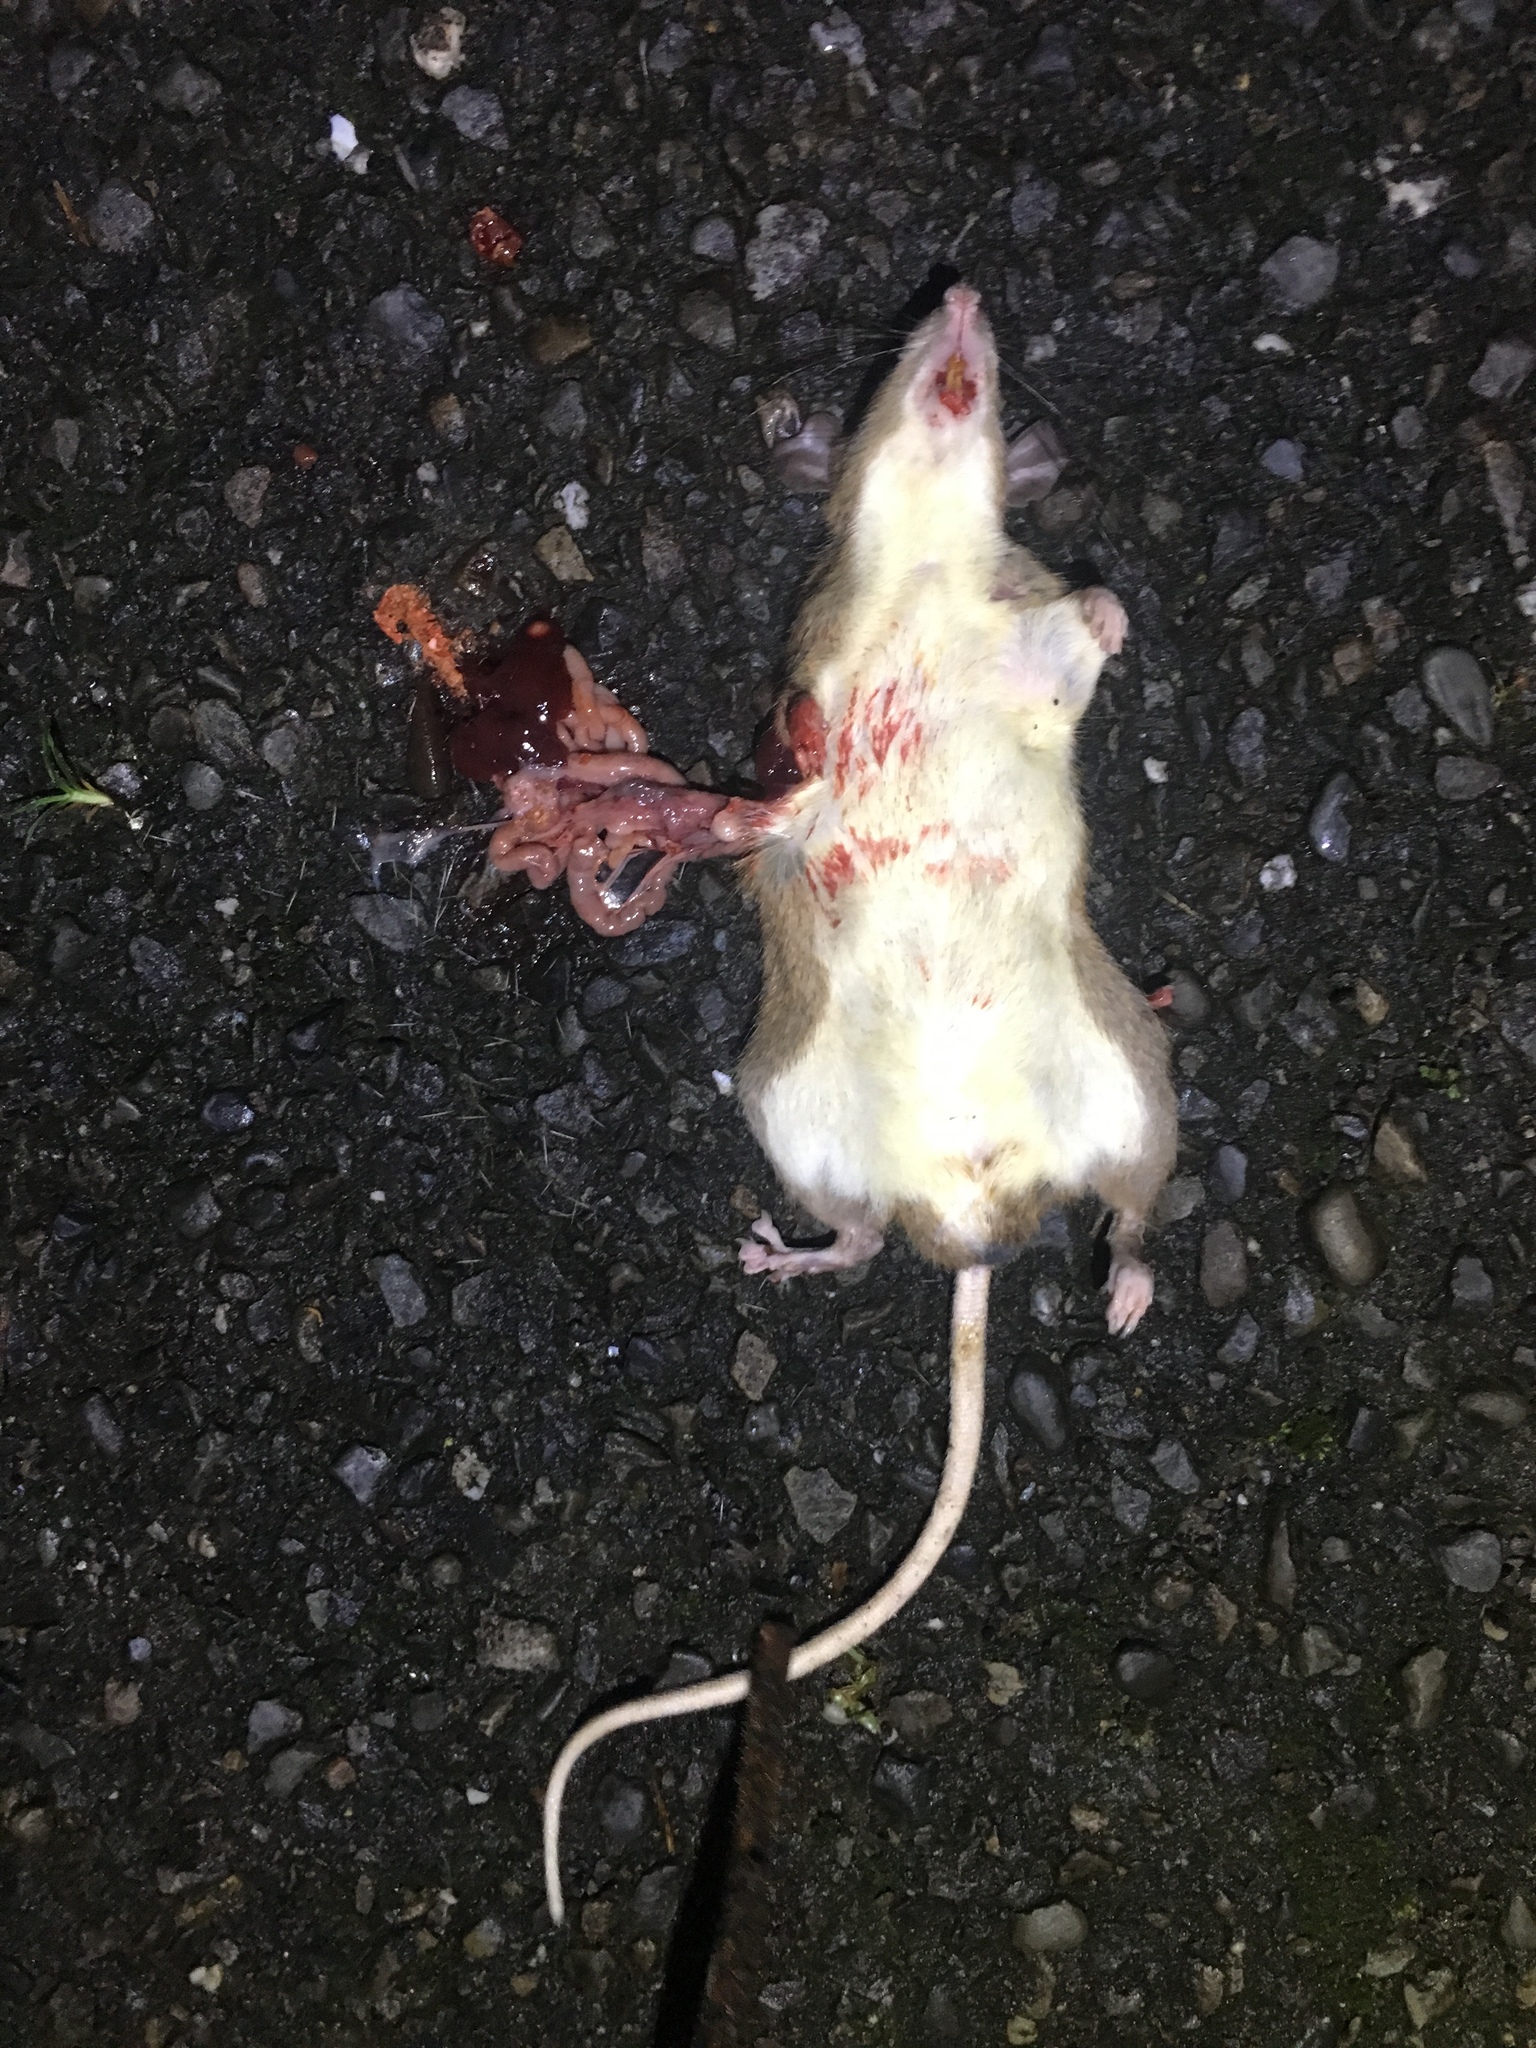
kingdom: Animalia
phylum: Chordata
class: Mammalia
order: Rodentia
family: Muridae
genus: Niviventer
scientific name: Niviventer coninga
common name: Spiny taiwan niviventer
